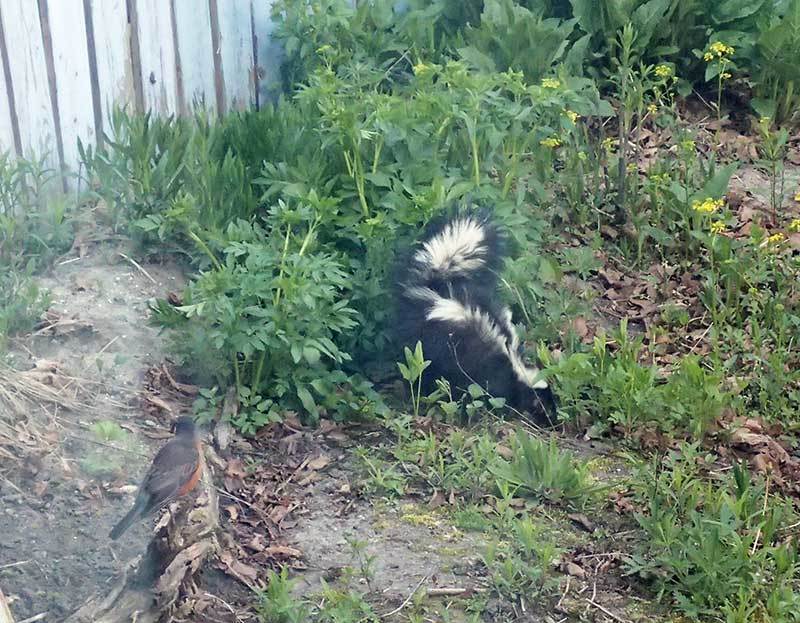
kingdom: Animalia
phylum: Chordata
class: Mammalia
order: Carnivora
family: Mephitidae
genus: Mephitis
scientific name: Mephitis mephitis
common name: Striped skunk
